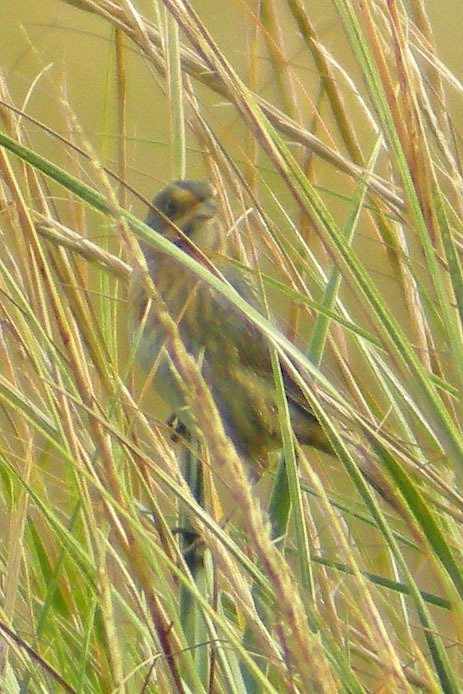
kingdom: Animalia
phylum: Chordata
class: Aves
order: Passeriformes
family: Passerellidae
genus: Ammospiza
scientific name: Ammospiza nelsoni
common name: Nelson's sparrow
